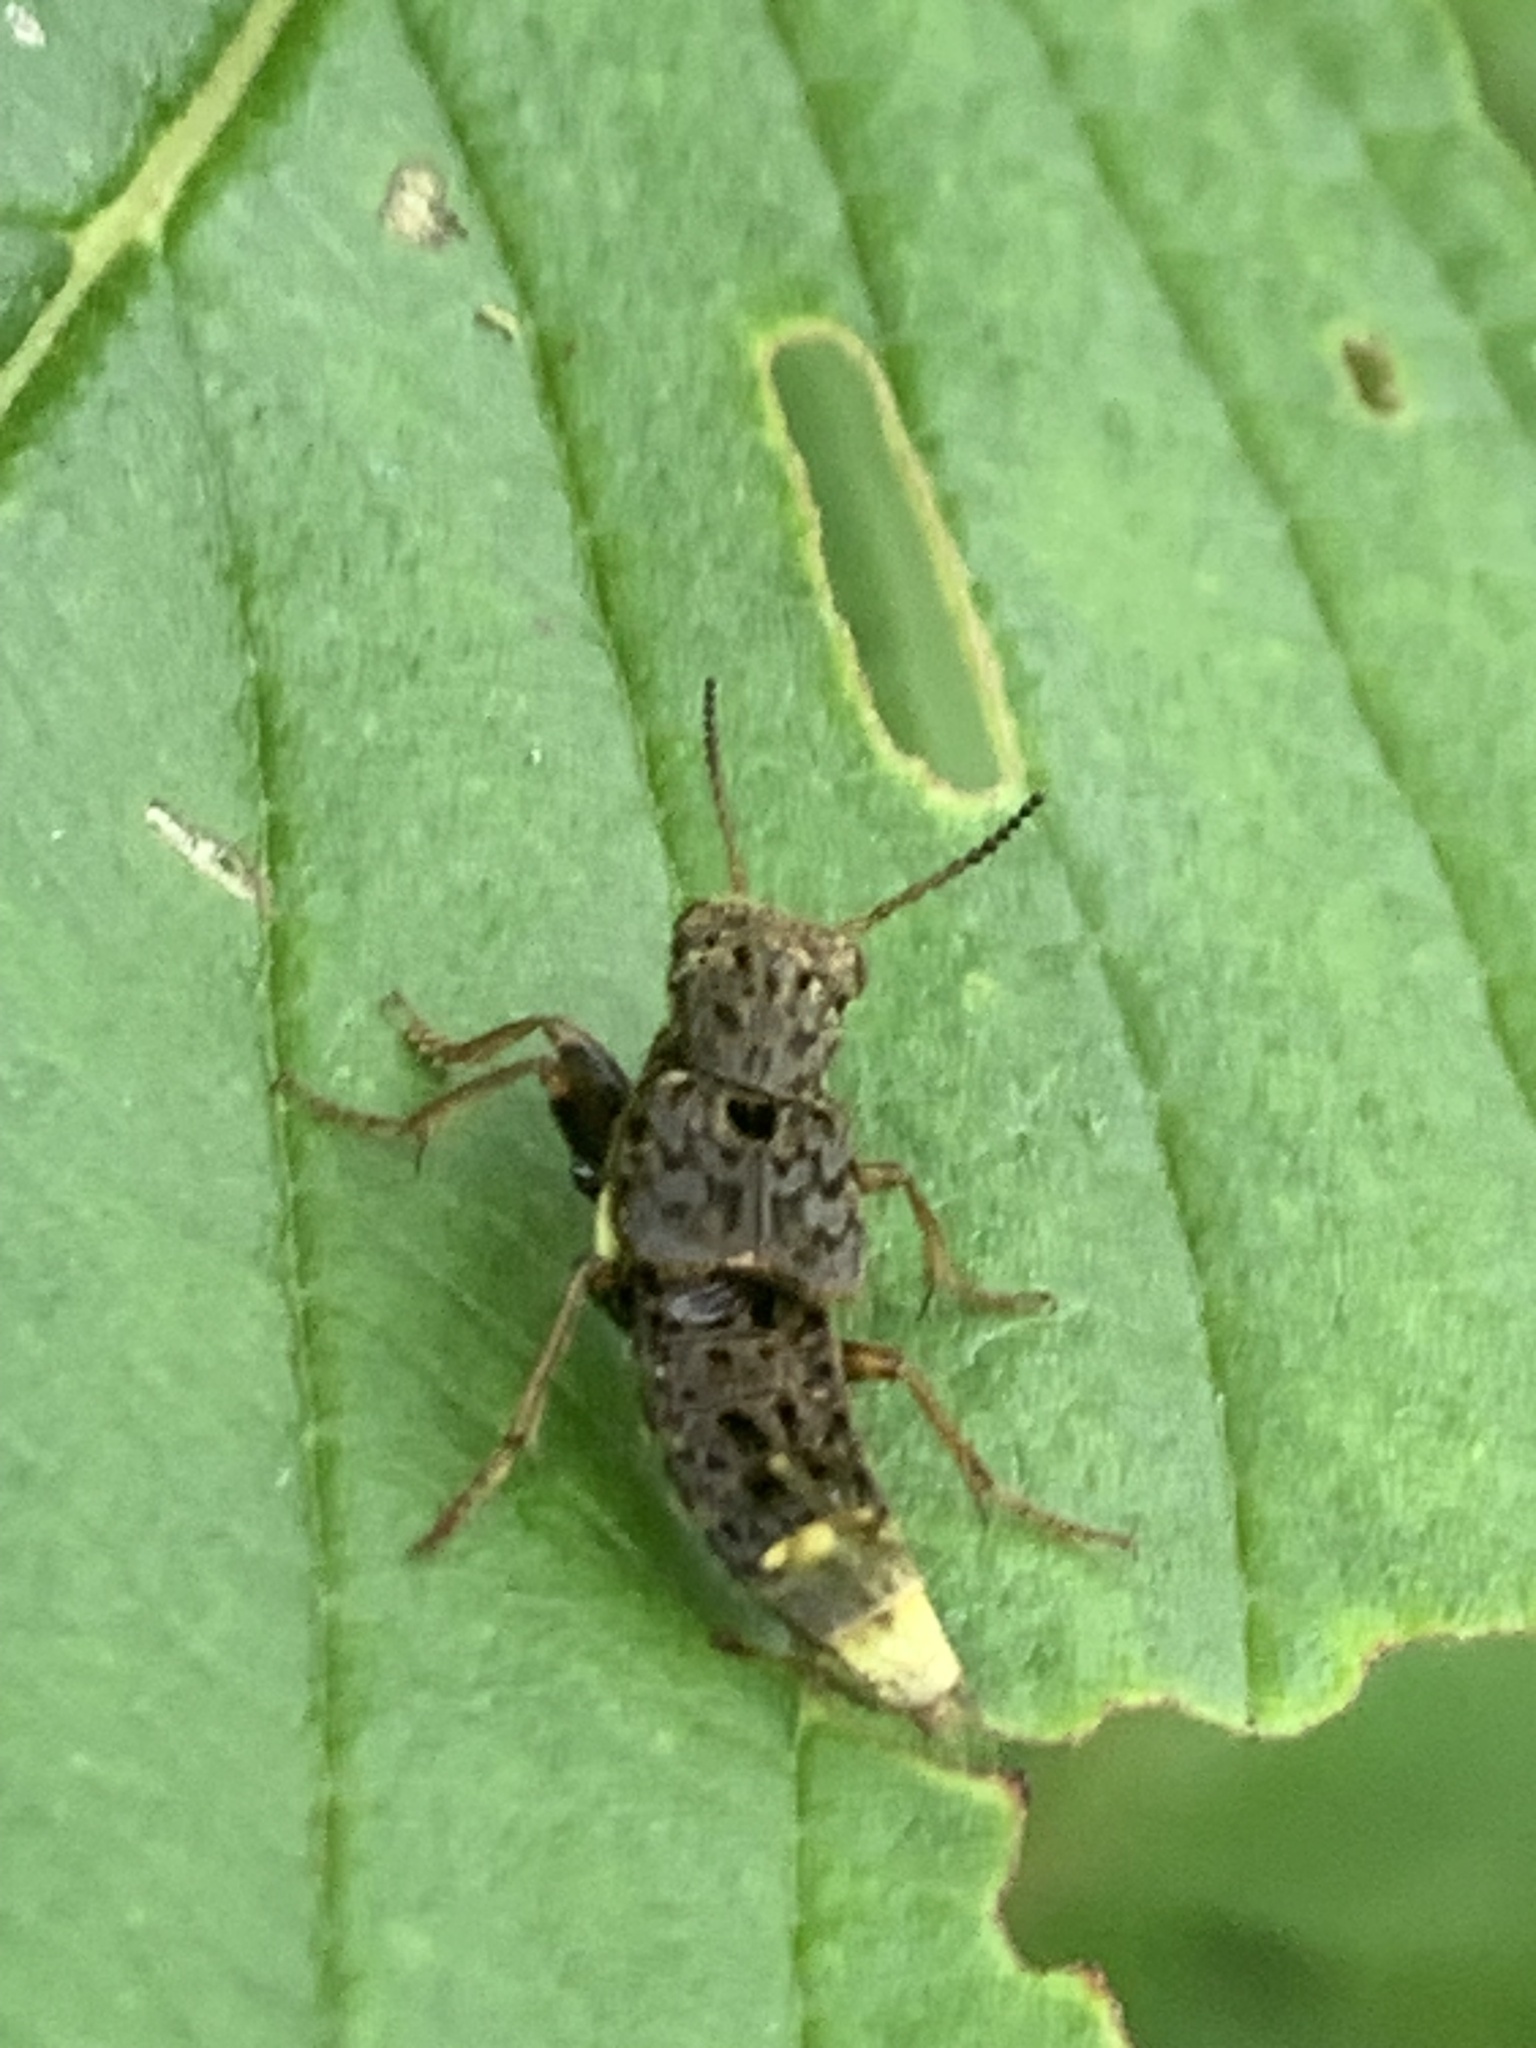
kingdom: Animalia
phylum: Arthropoda
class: Insecta
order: Coleoptera
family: Staphylinidae
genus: Ontholestes
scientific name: Ontholestes cingulatus
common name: Gold-and-brown rove beetle
